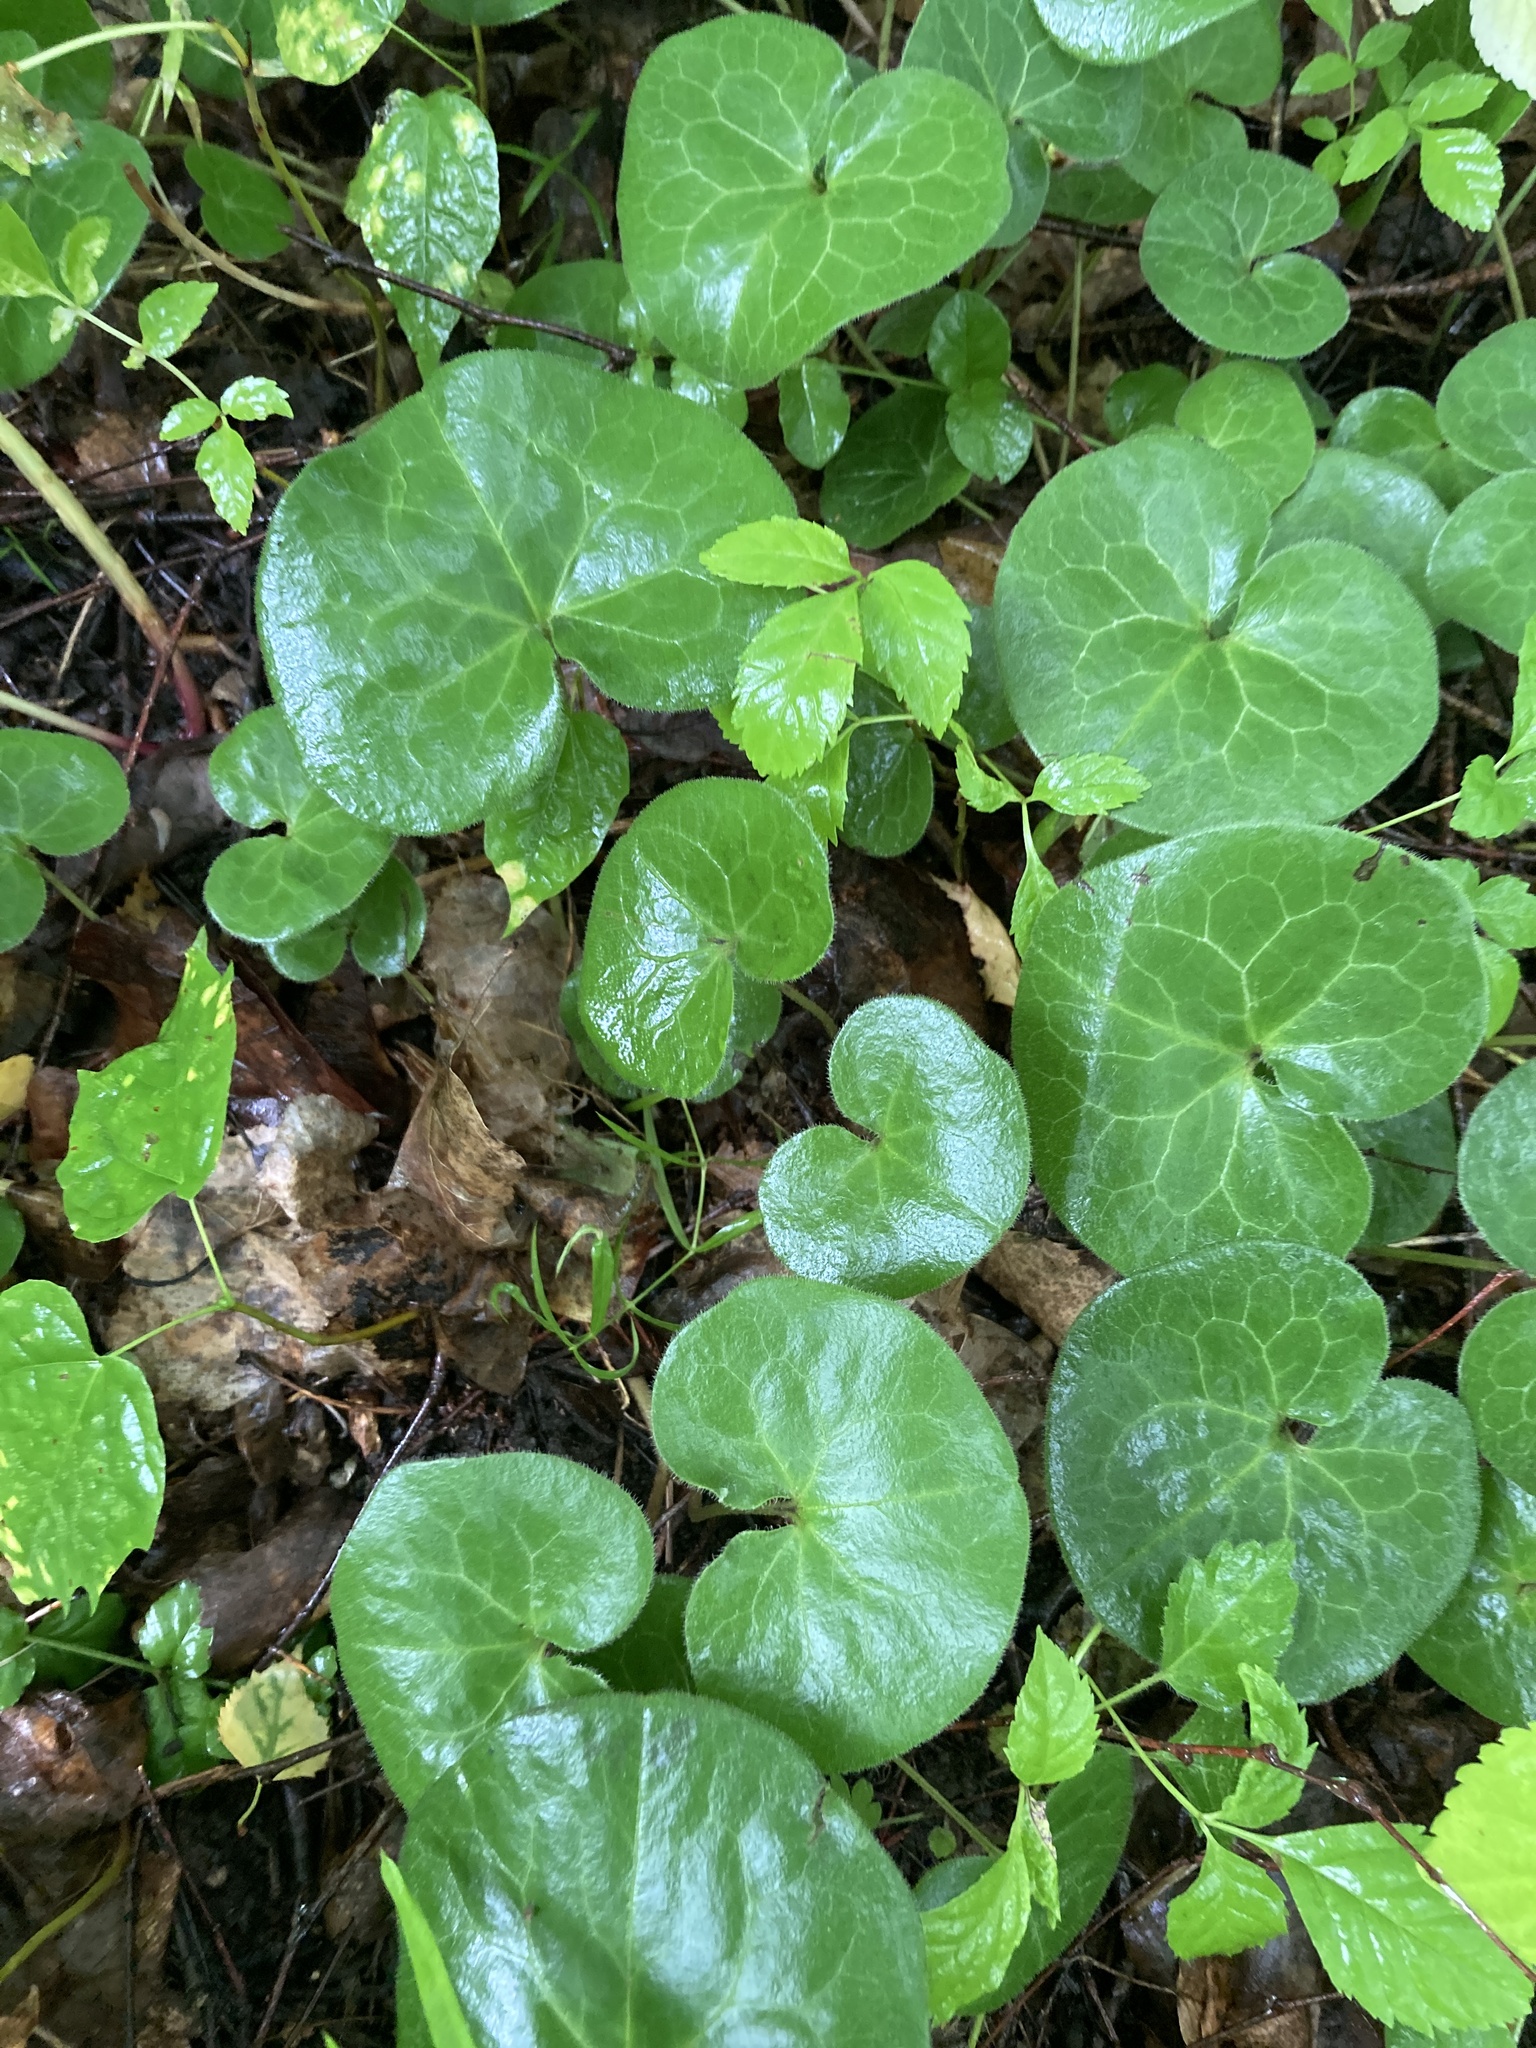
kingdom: Plantae
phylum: Tracheophyta
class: Magnoliopsida
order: Piperales
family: Aristolochiaceae
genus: Asarum
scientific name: Asarum europaeum
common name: Asarabacca
